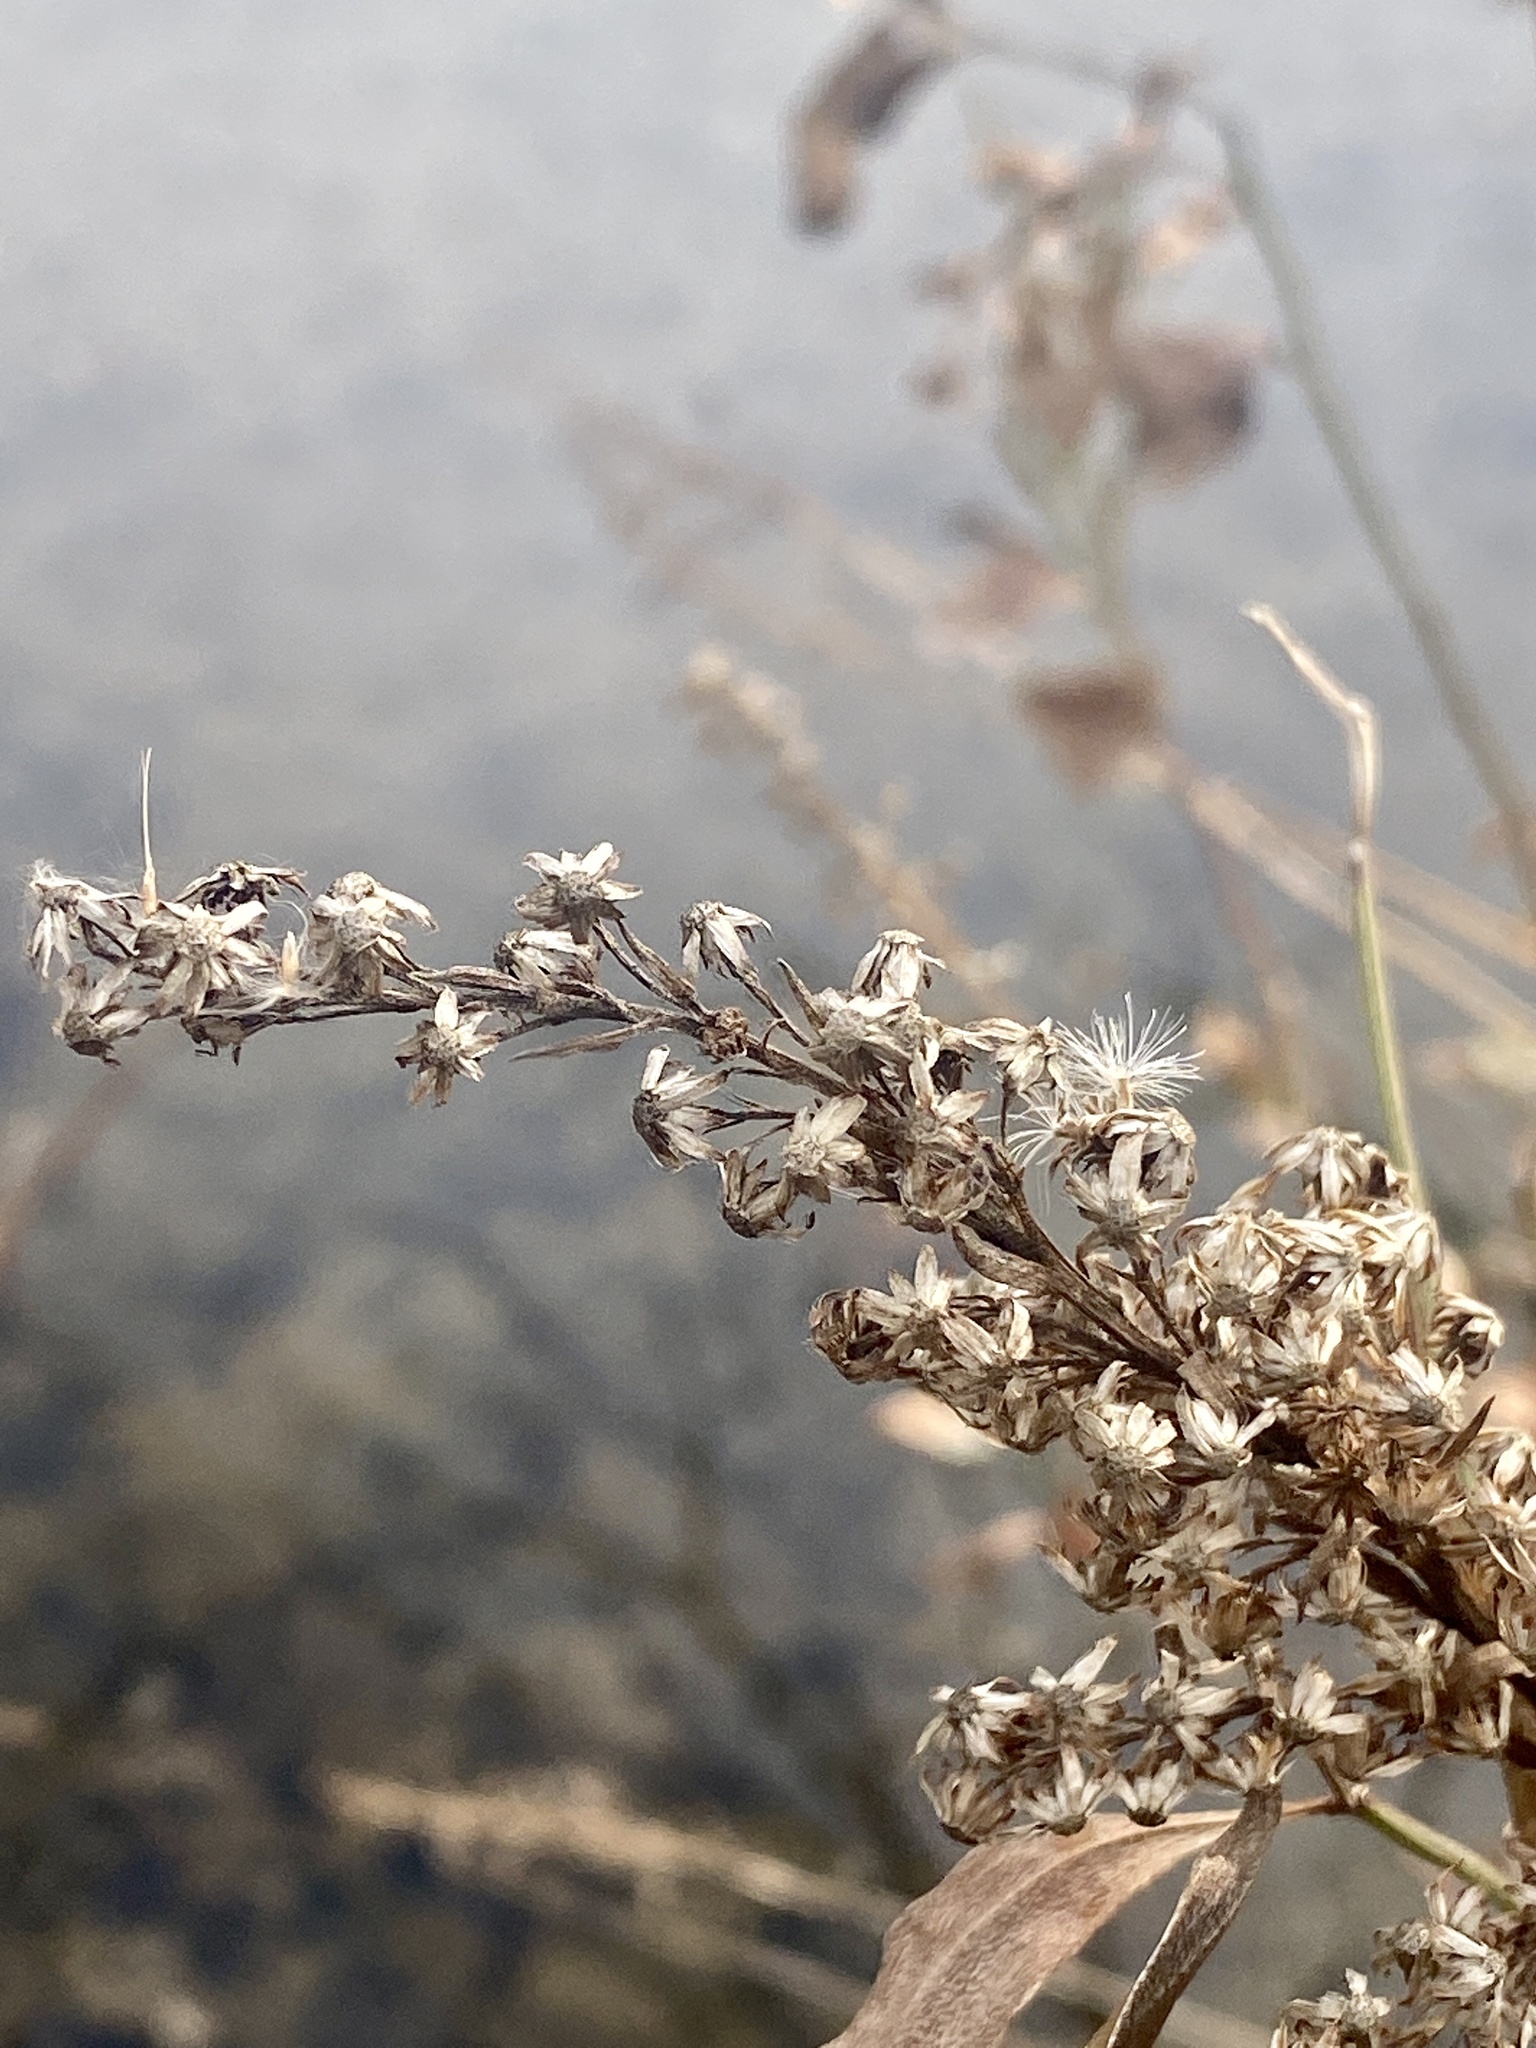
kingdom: Plantae
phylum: Tracheophyta
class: Magnoliopsida
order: Asterales
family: Asteraceae
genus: Solidago
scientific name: Solidago sempervirens
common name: Salt-marsh goldenrod
